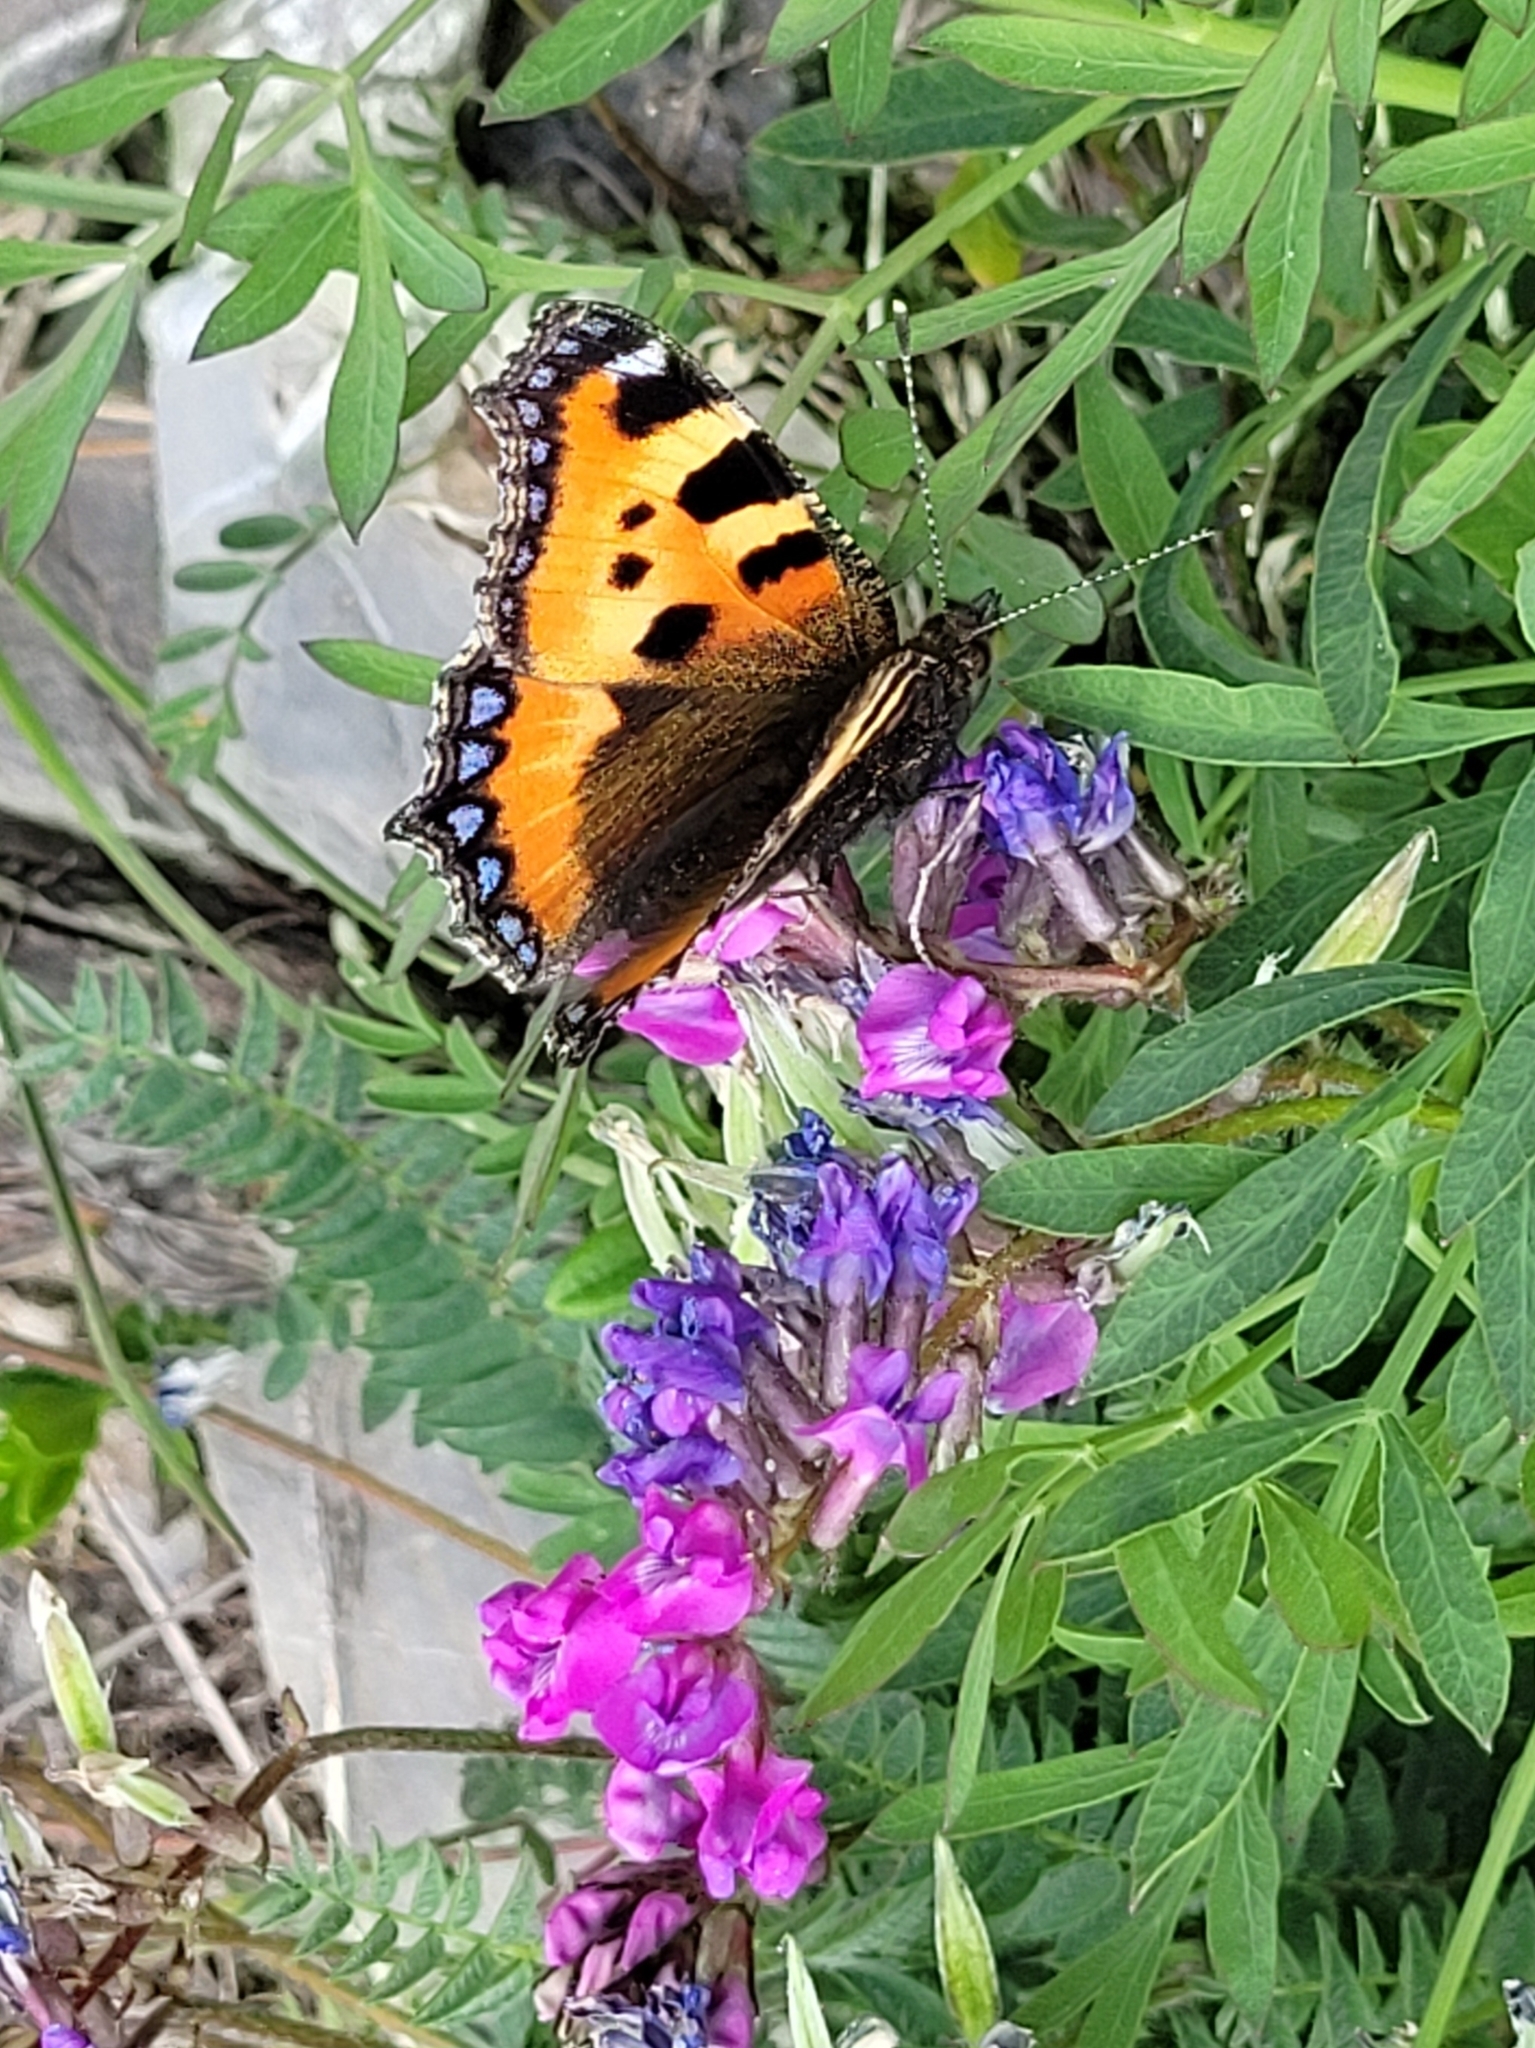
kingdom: Animalia
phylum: Arthropoda
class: Insecta
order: Lepidoptera
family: Nymphalidae
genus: Aglais
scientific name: Aglais urticae
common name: Small tortoiseshell
